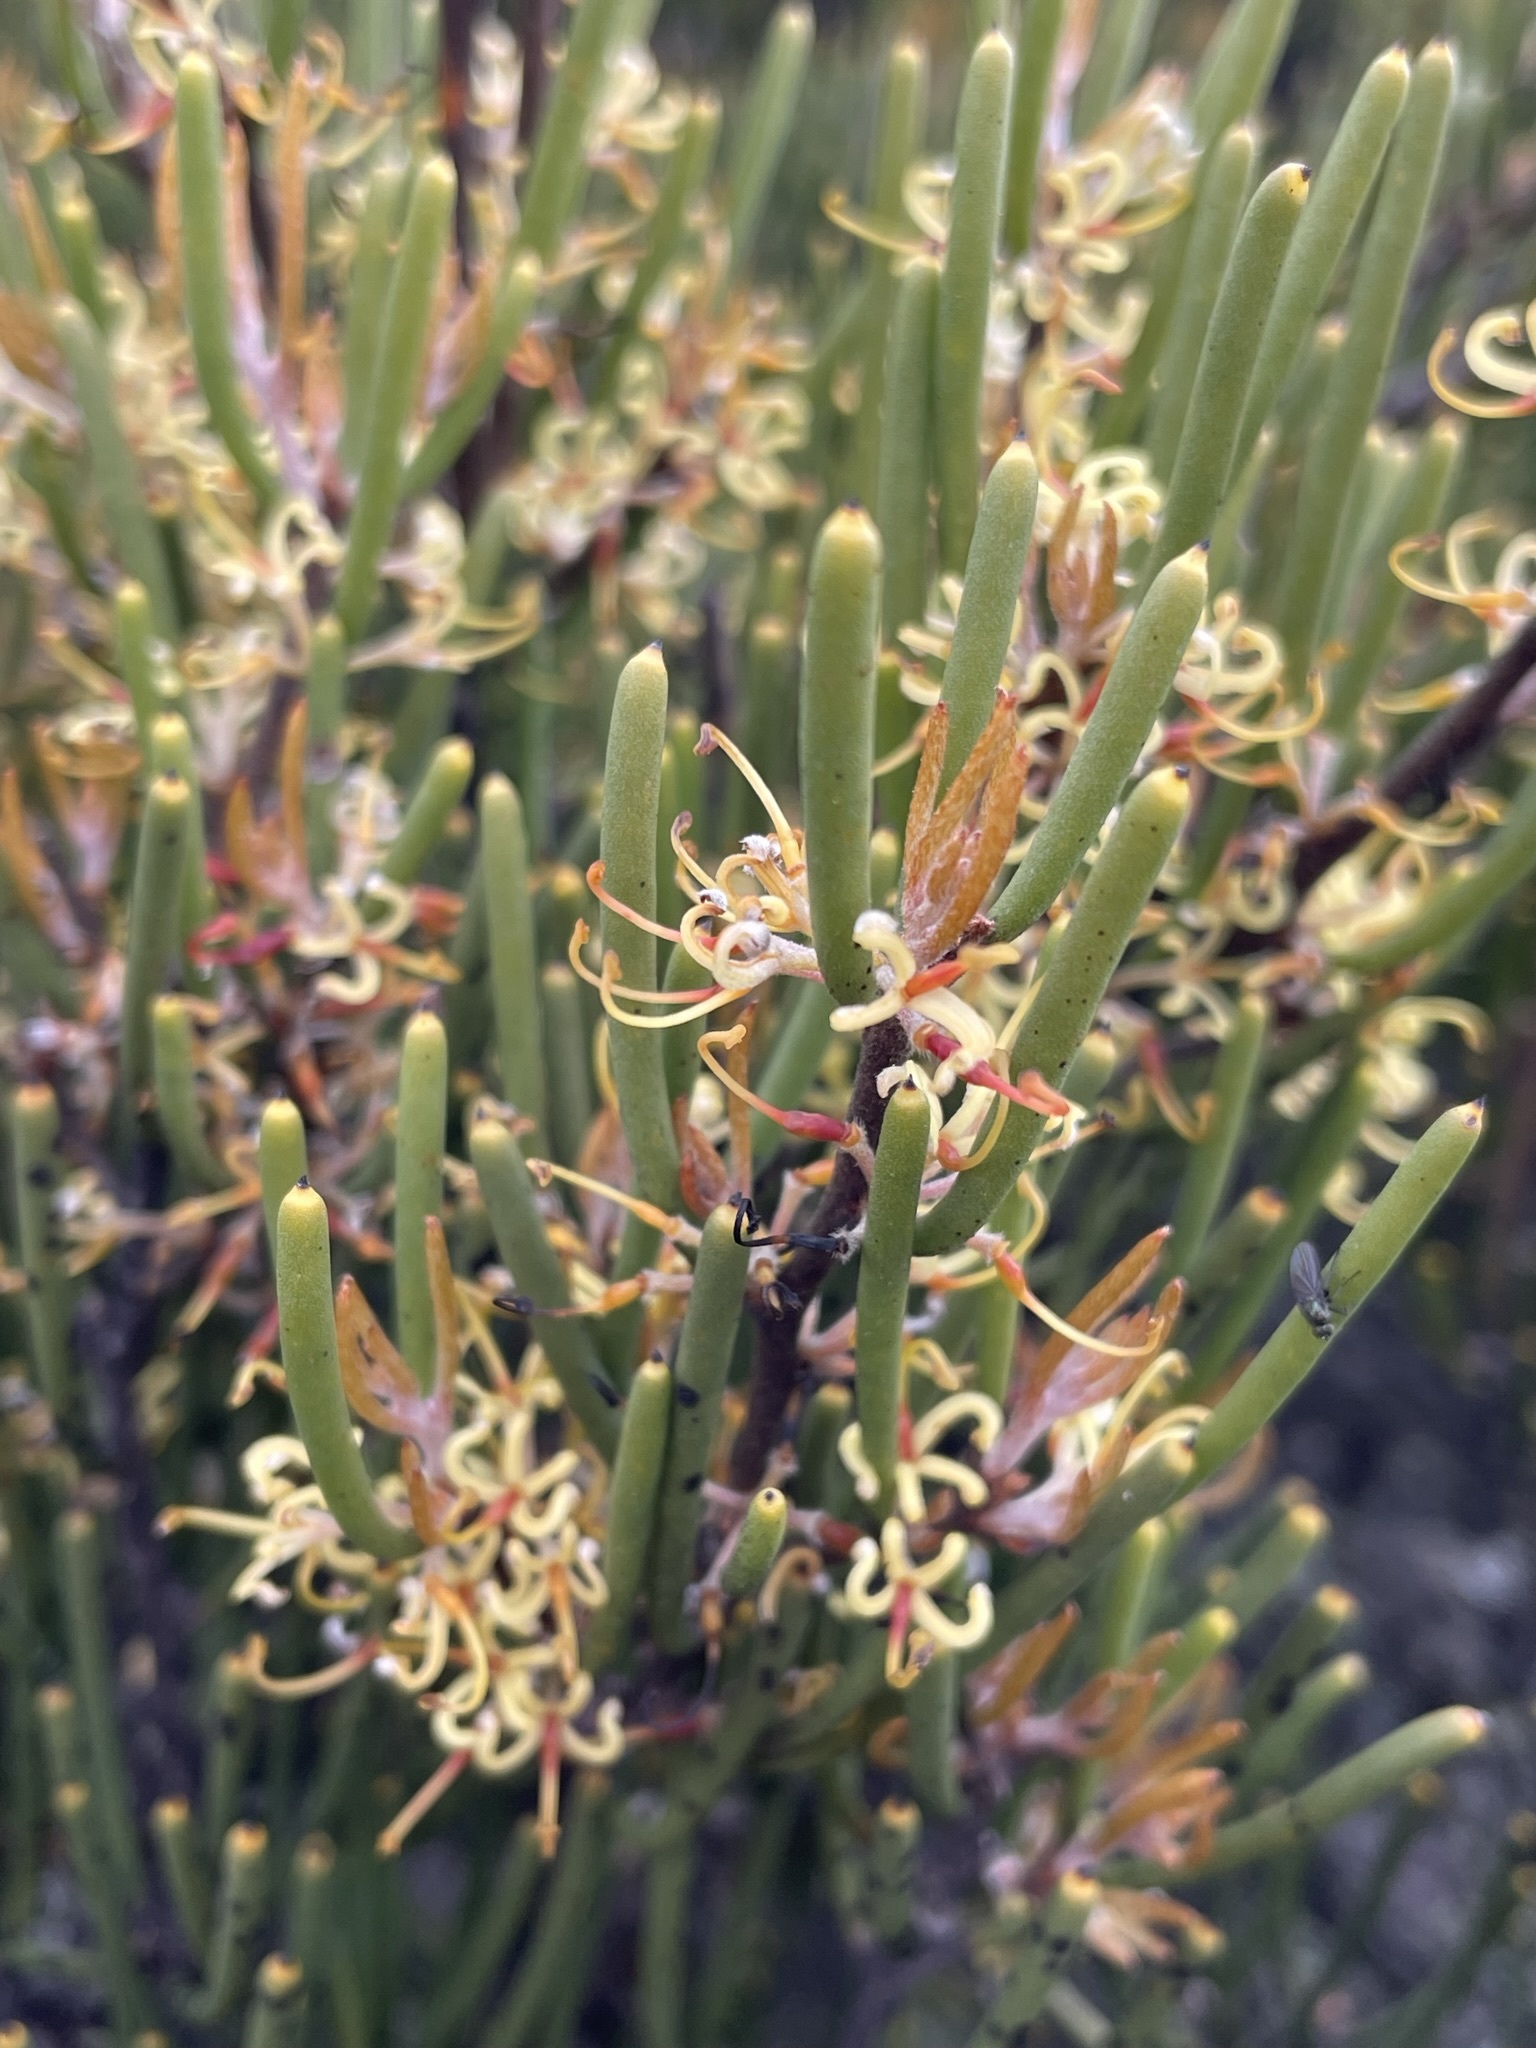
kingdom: Plantae
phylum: Tracheophyta
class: Magnoliopsida
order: Proteales
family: Proteaceae
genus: Hakea
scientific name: Hakea epiglottis
